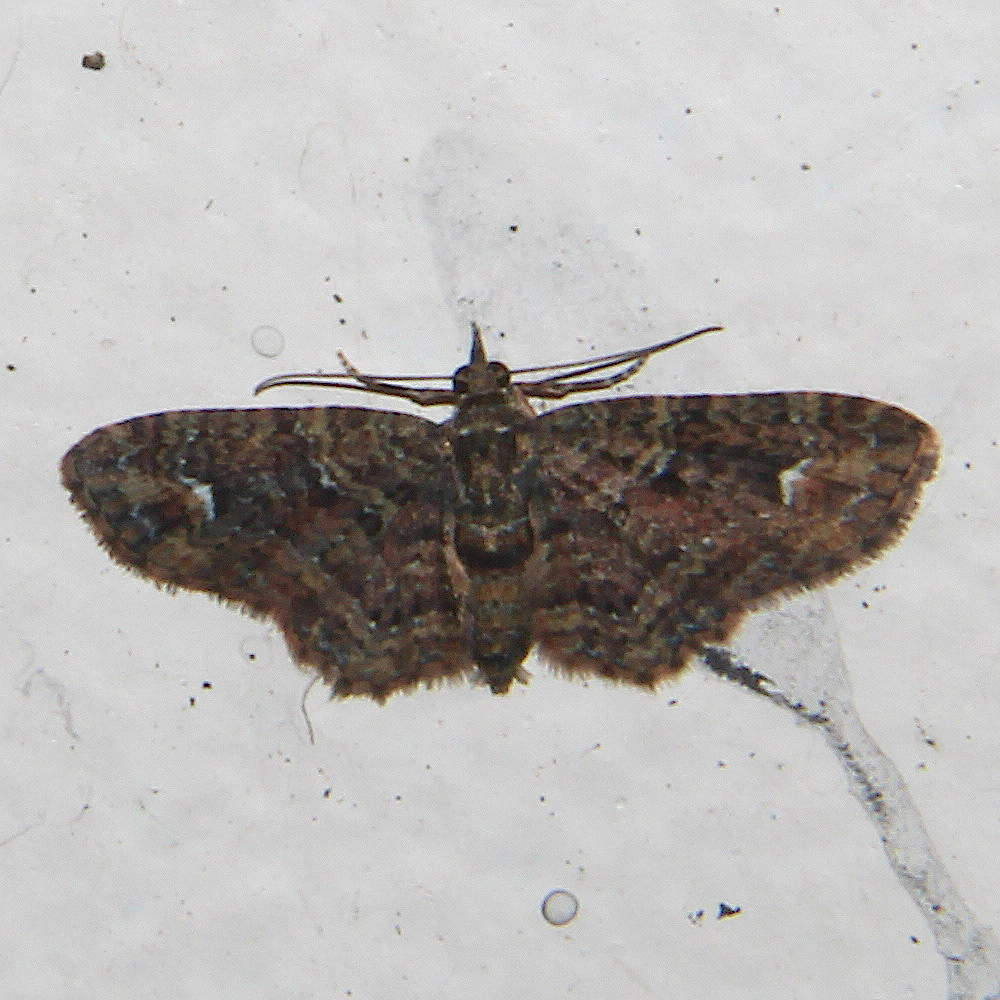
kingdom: Animalia
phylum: Arthropoda
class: Insecta
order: Lepidoptera
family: Geometridae
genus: Pasiphilodes
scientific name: Pasiphilodes testulata
